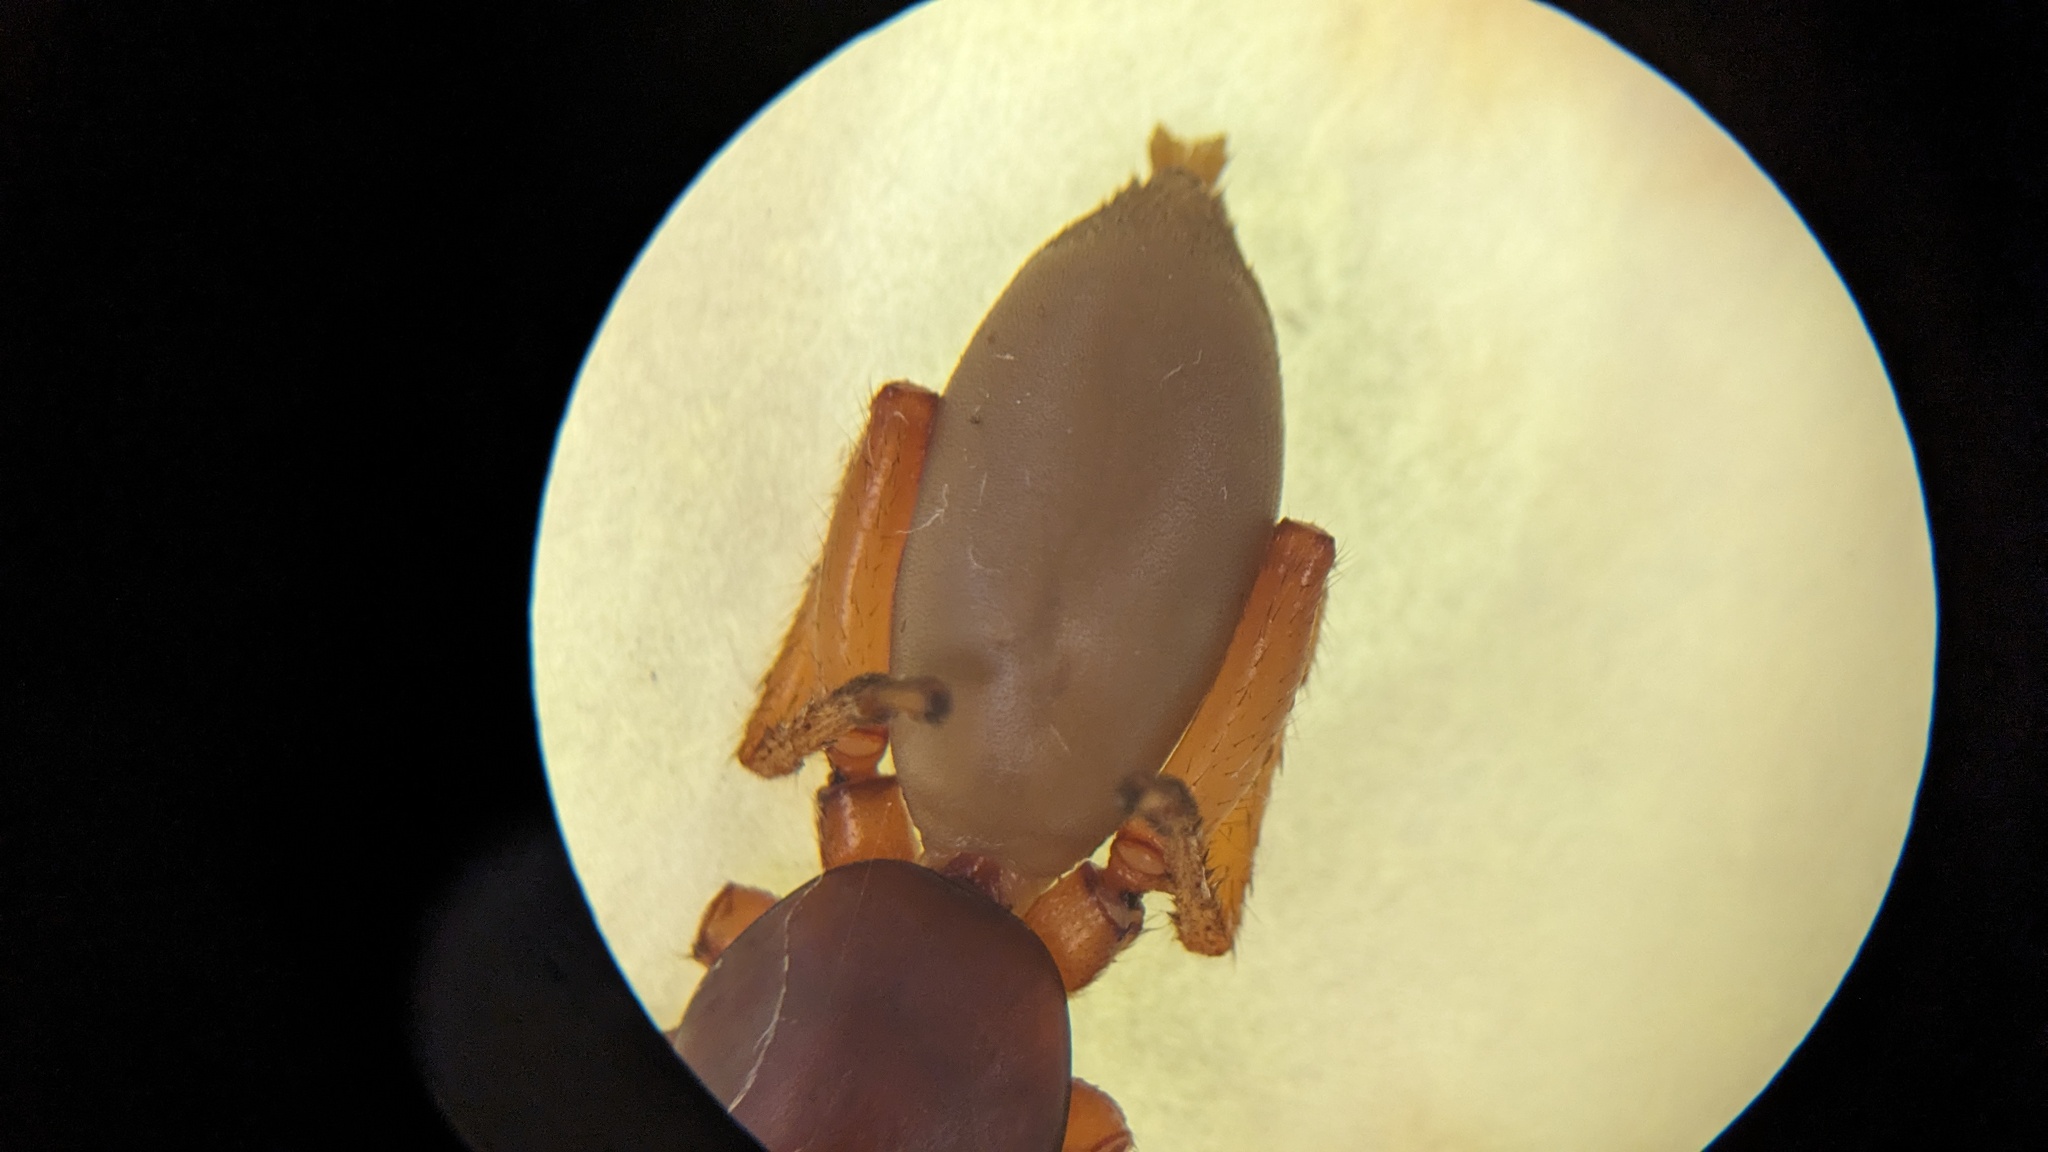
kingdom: Animalia
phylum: Arthropoda
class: Arachnida
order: Araneae
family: Dysderidae
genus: Dysdera
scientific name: Dysdera crocata
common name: Woodlouse spider
